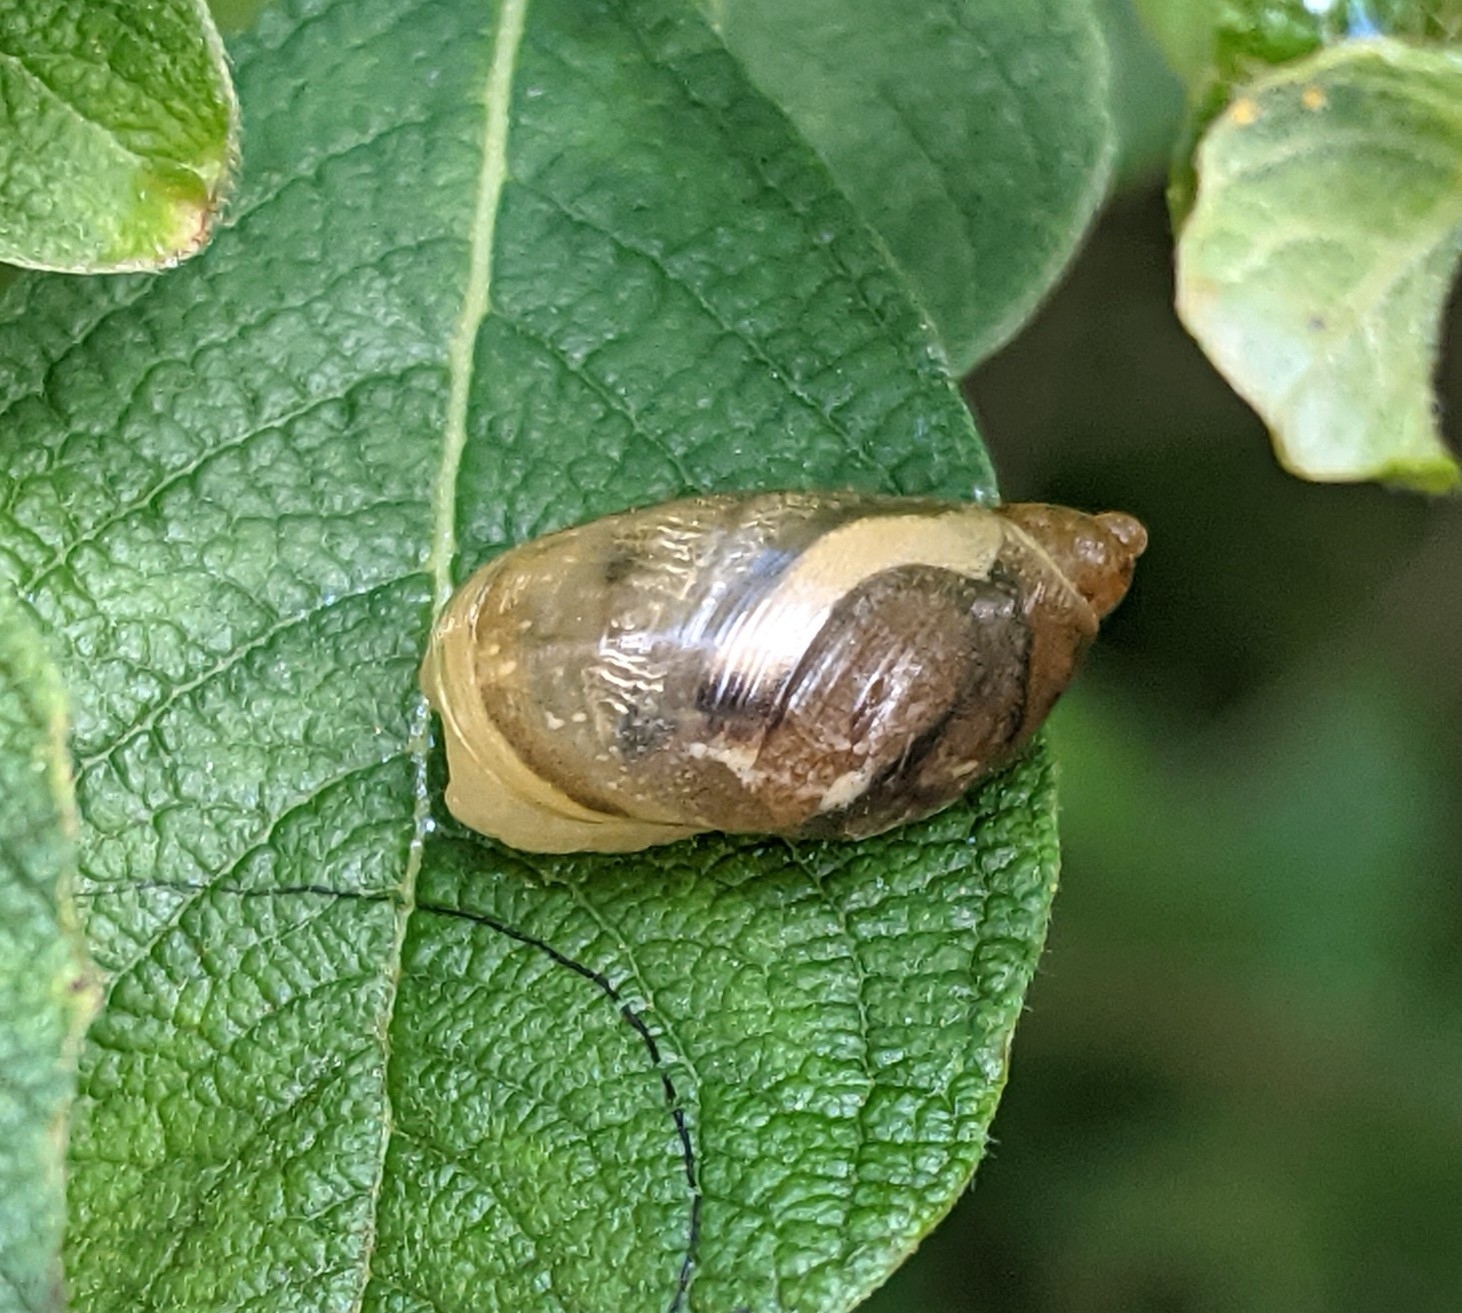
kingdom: Animalia
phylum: Mollusca
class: Gastropoda
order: Stylommatophora
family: Succineidae
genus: Succinea
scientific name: Succinea putris
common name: European ambersnail
